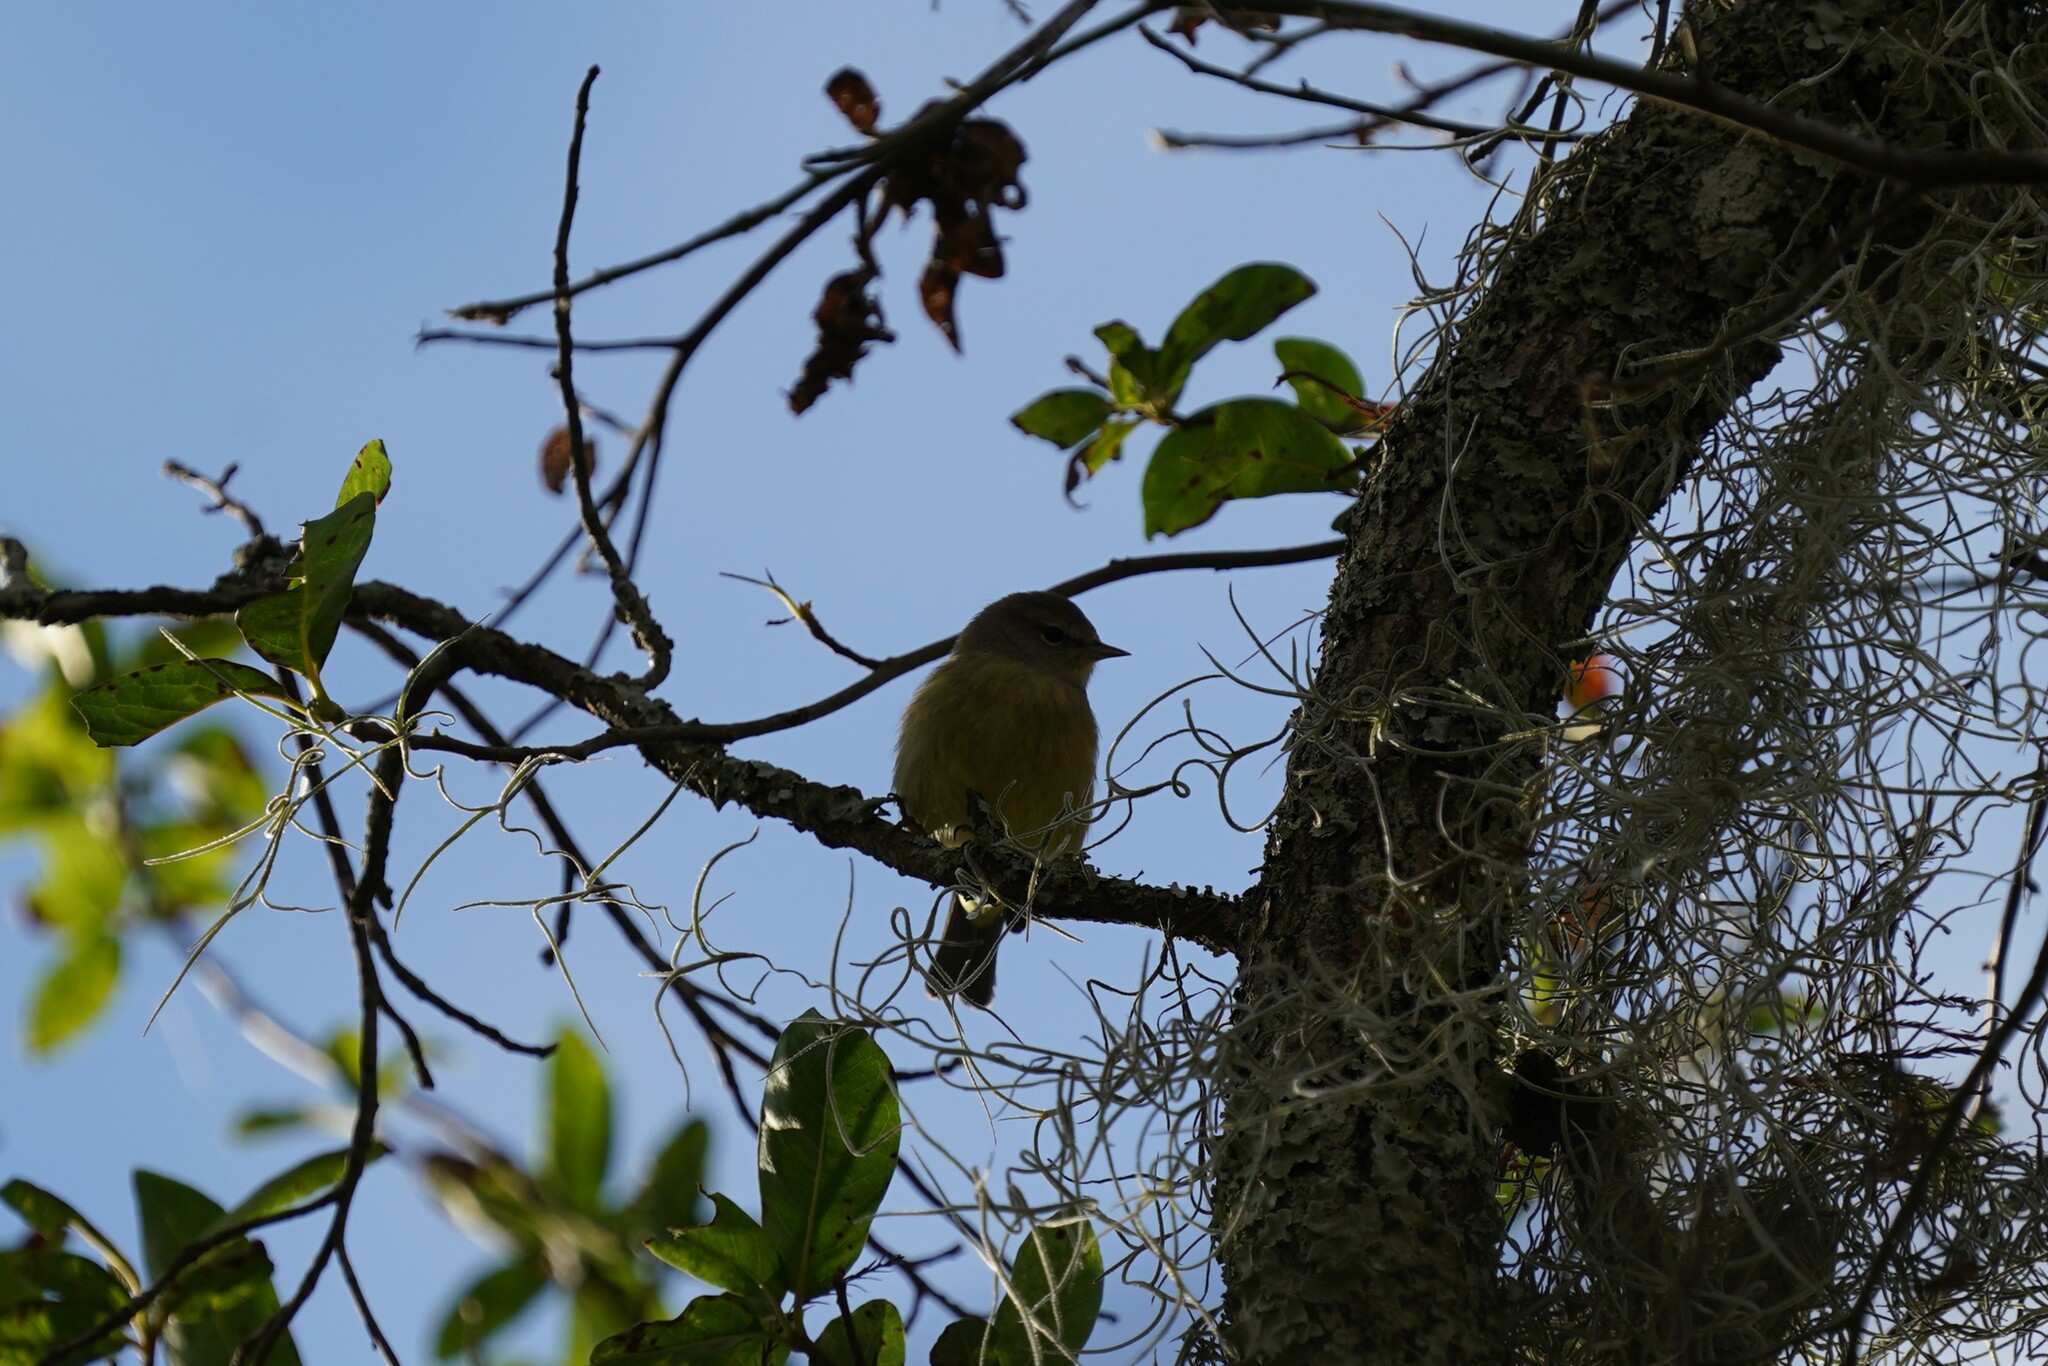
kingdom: Animalia
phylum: Chordata
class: Aves
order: Passeriformes
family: Parulidae
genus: Leiothlypis
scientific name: Leiothlypis celata
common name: Orange-crowned warbler
